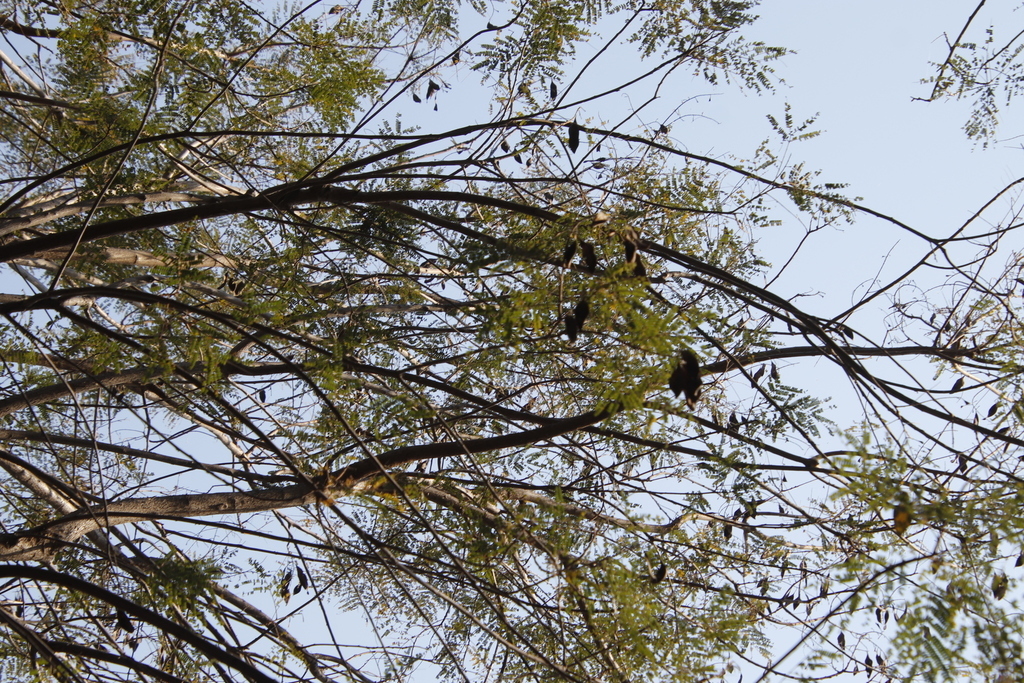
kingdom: Plantae
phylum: Tracheophyta
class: Magnoliopsida
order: Fabales
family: Fabaceae
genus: Peltophorum
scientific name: Peltophorum africanum
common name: African black wattle
